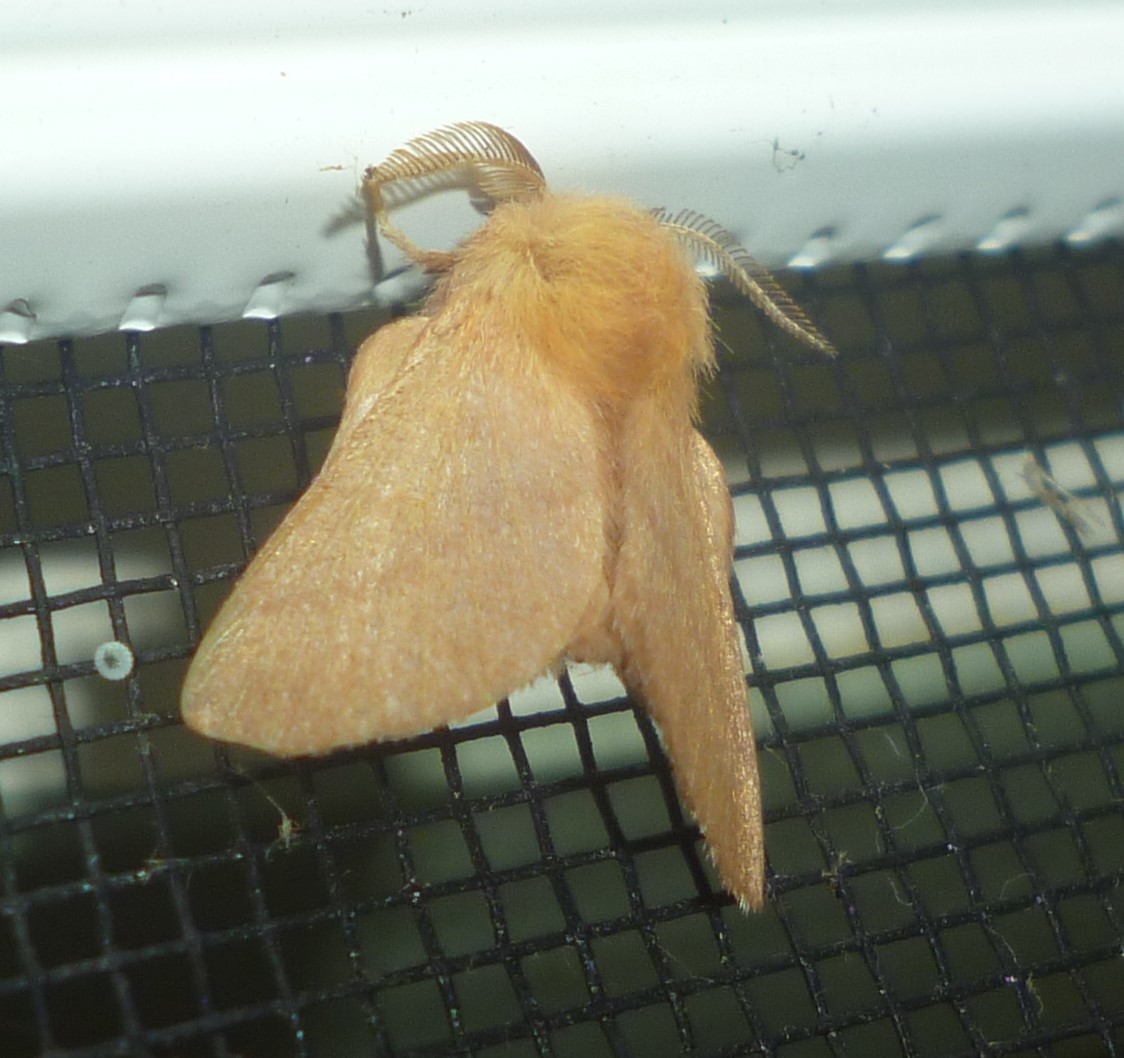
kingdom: Animalia
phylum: Arthropoda
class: Insecta
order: Lepidoptera
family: Lasiocampidae
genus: Malacosoma
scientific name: Malacosoma disstria
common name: Forest tent caterpillar
